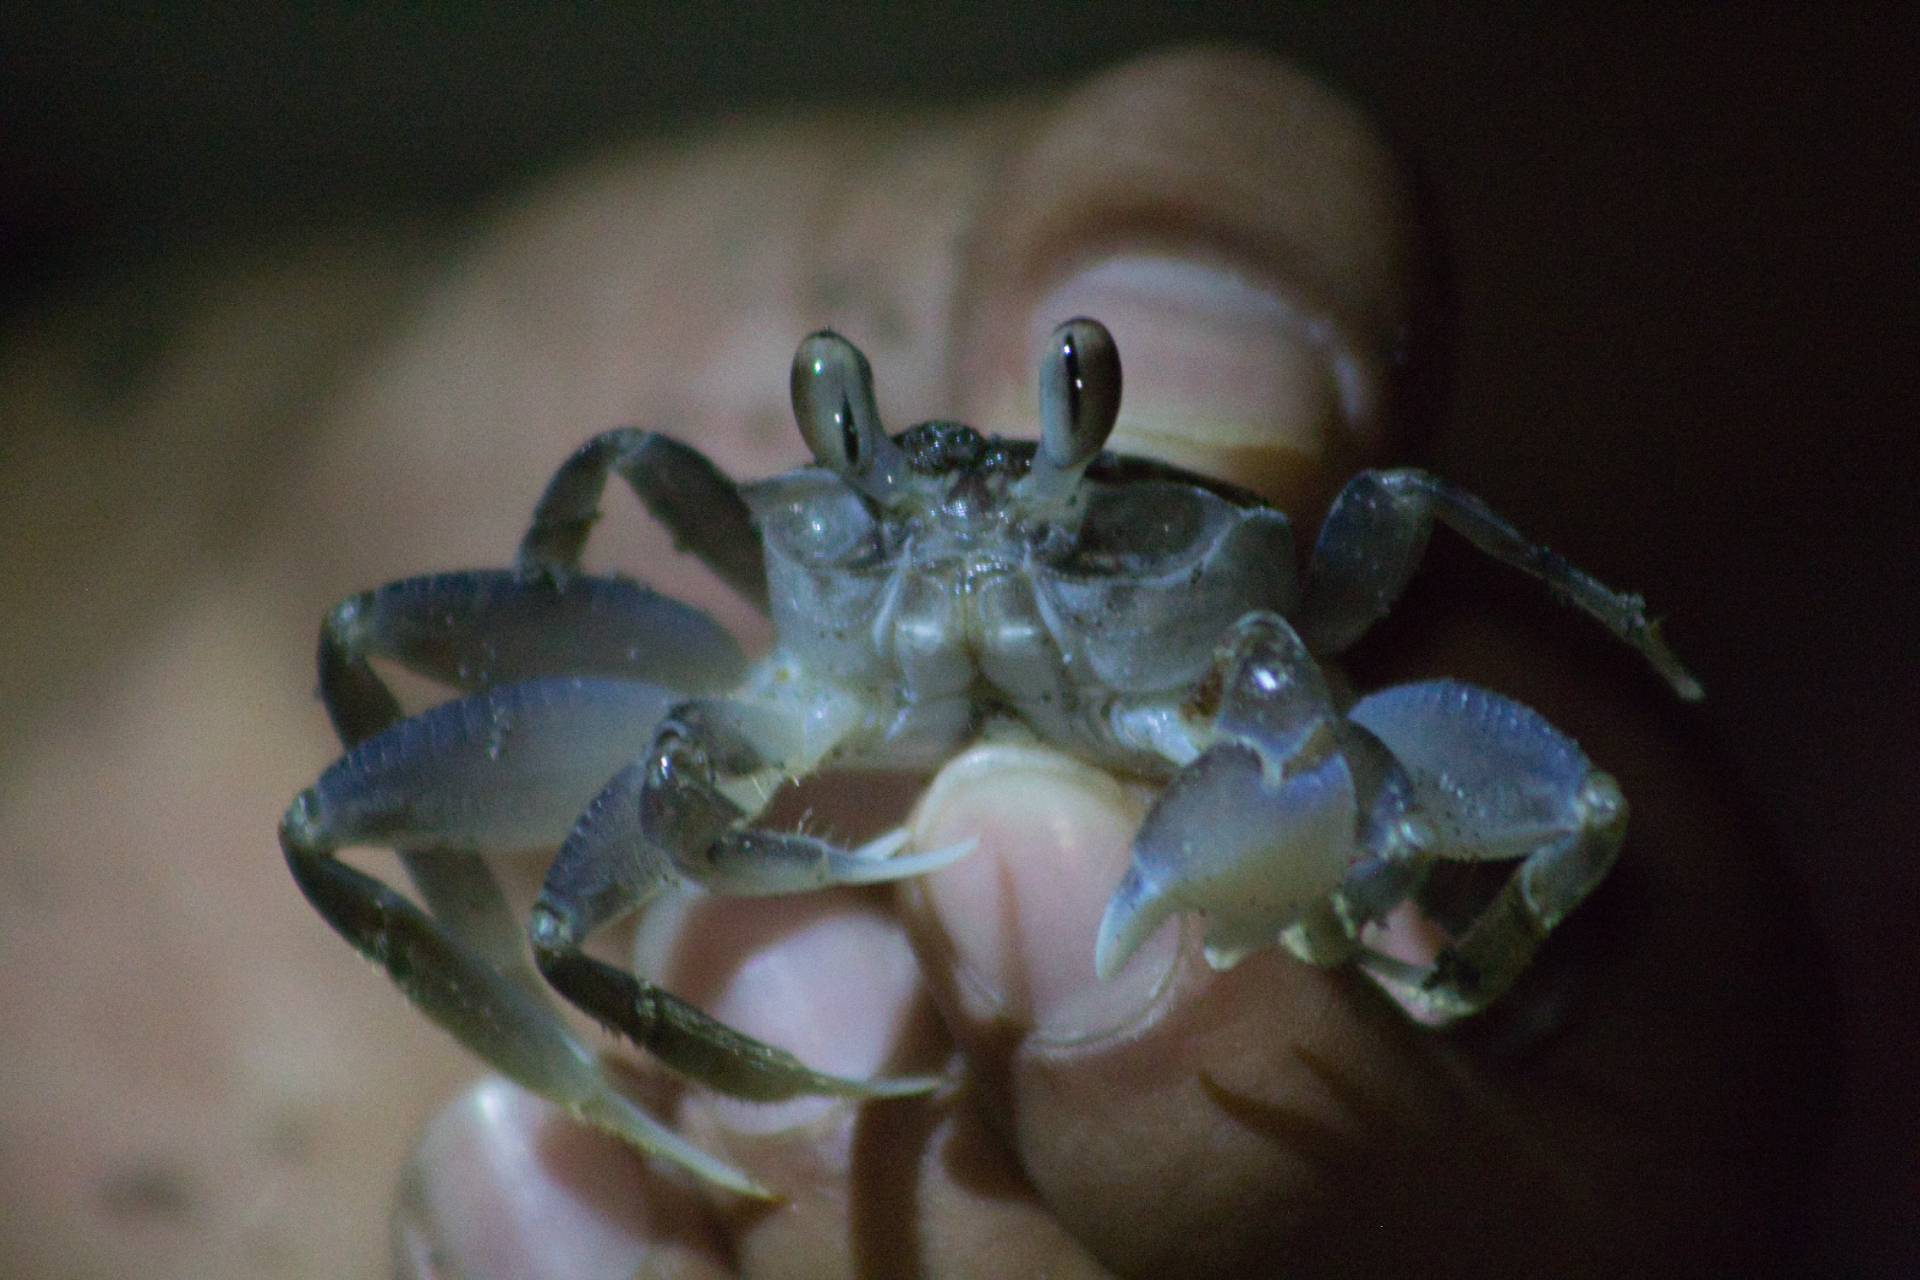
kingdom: Animalia
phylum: Arthropoda
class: Malacostraca
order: Decapoda
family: Ocypodidae
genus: Ocypode
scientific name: Ocypode occidentalis
